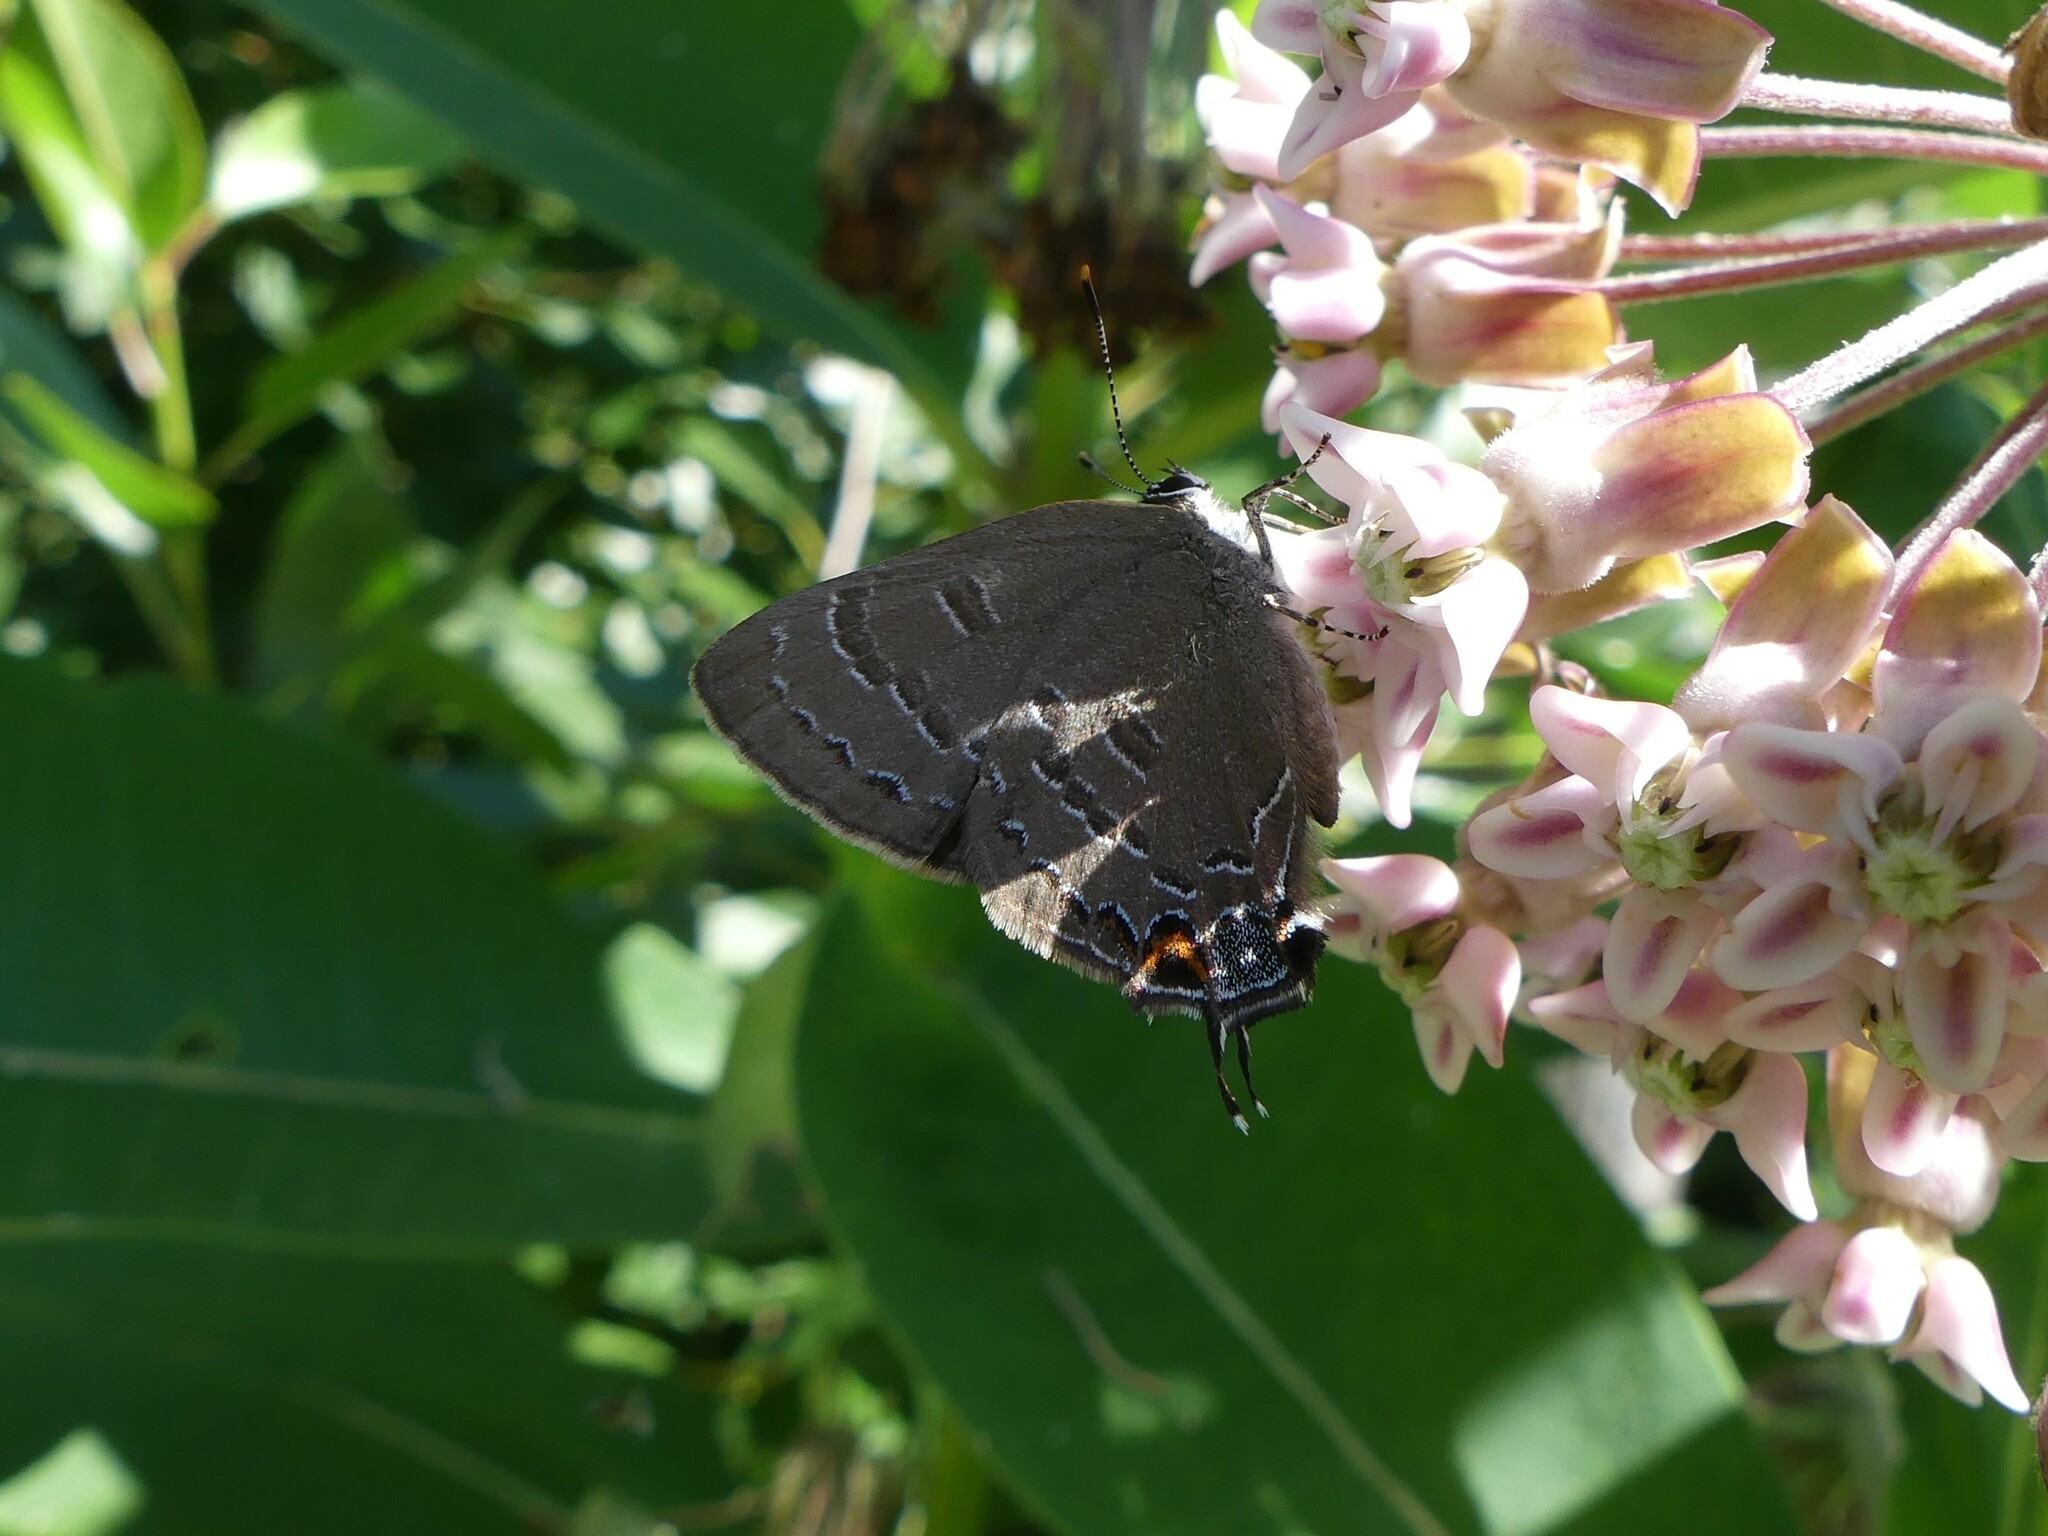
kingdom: Animalia
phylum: Arthropoda
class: Insecta
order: Lepidoptera
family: Lycaenidae
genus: Satyrium
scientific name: Satyrium calanus
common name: Banded hairstreak
